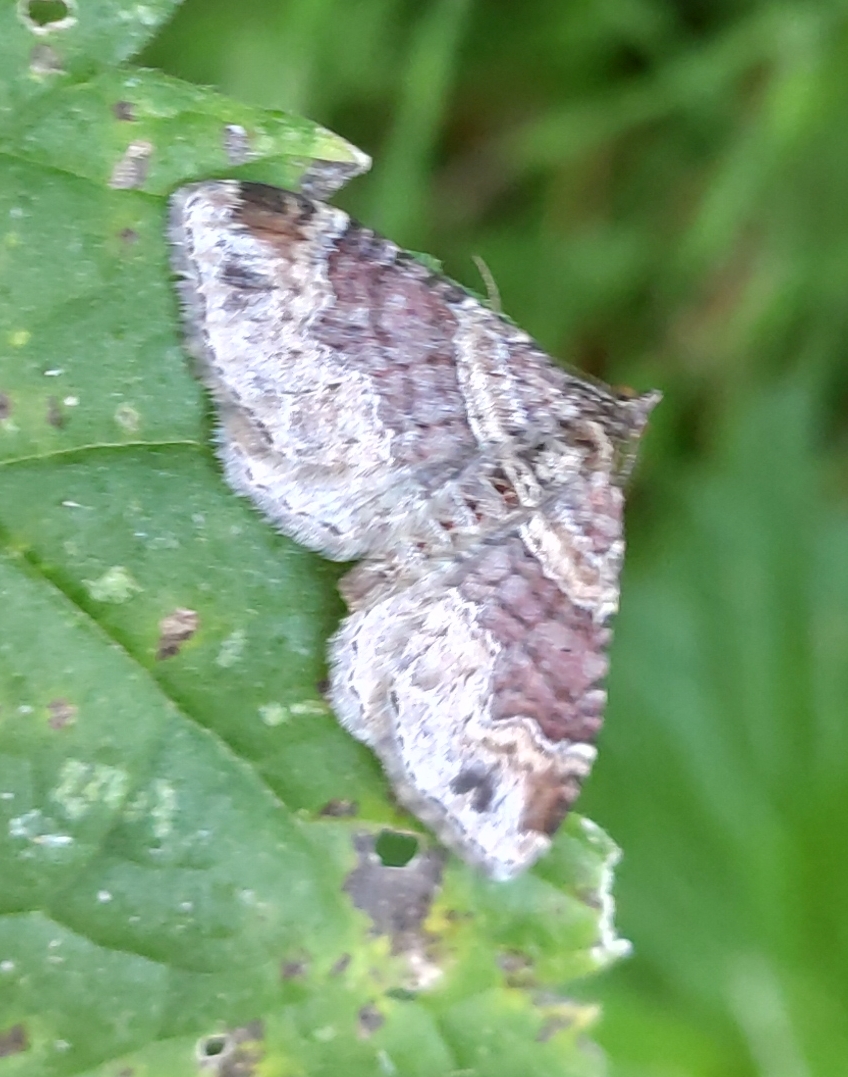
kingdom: Animalia
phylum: Arthropoda
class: Insecta
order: Lepidoptera
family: Geometridae
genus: Xanthorhoe
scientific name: Xanthorhoe spadicearia
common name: Red twin-spot carpet
